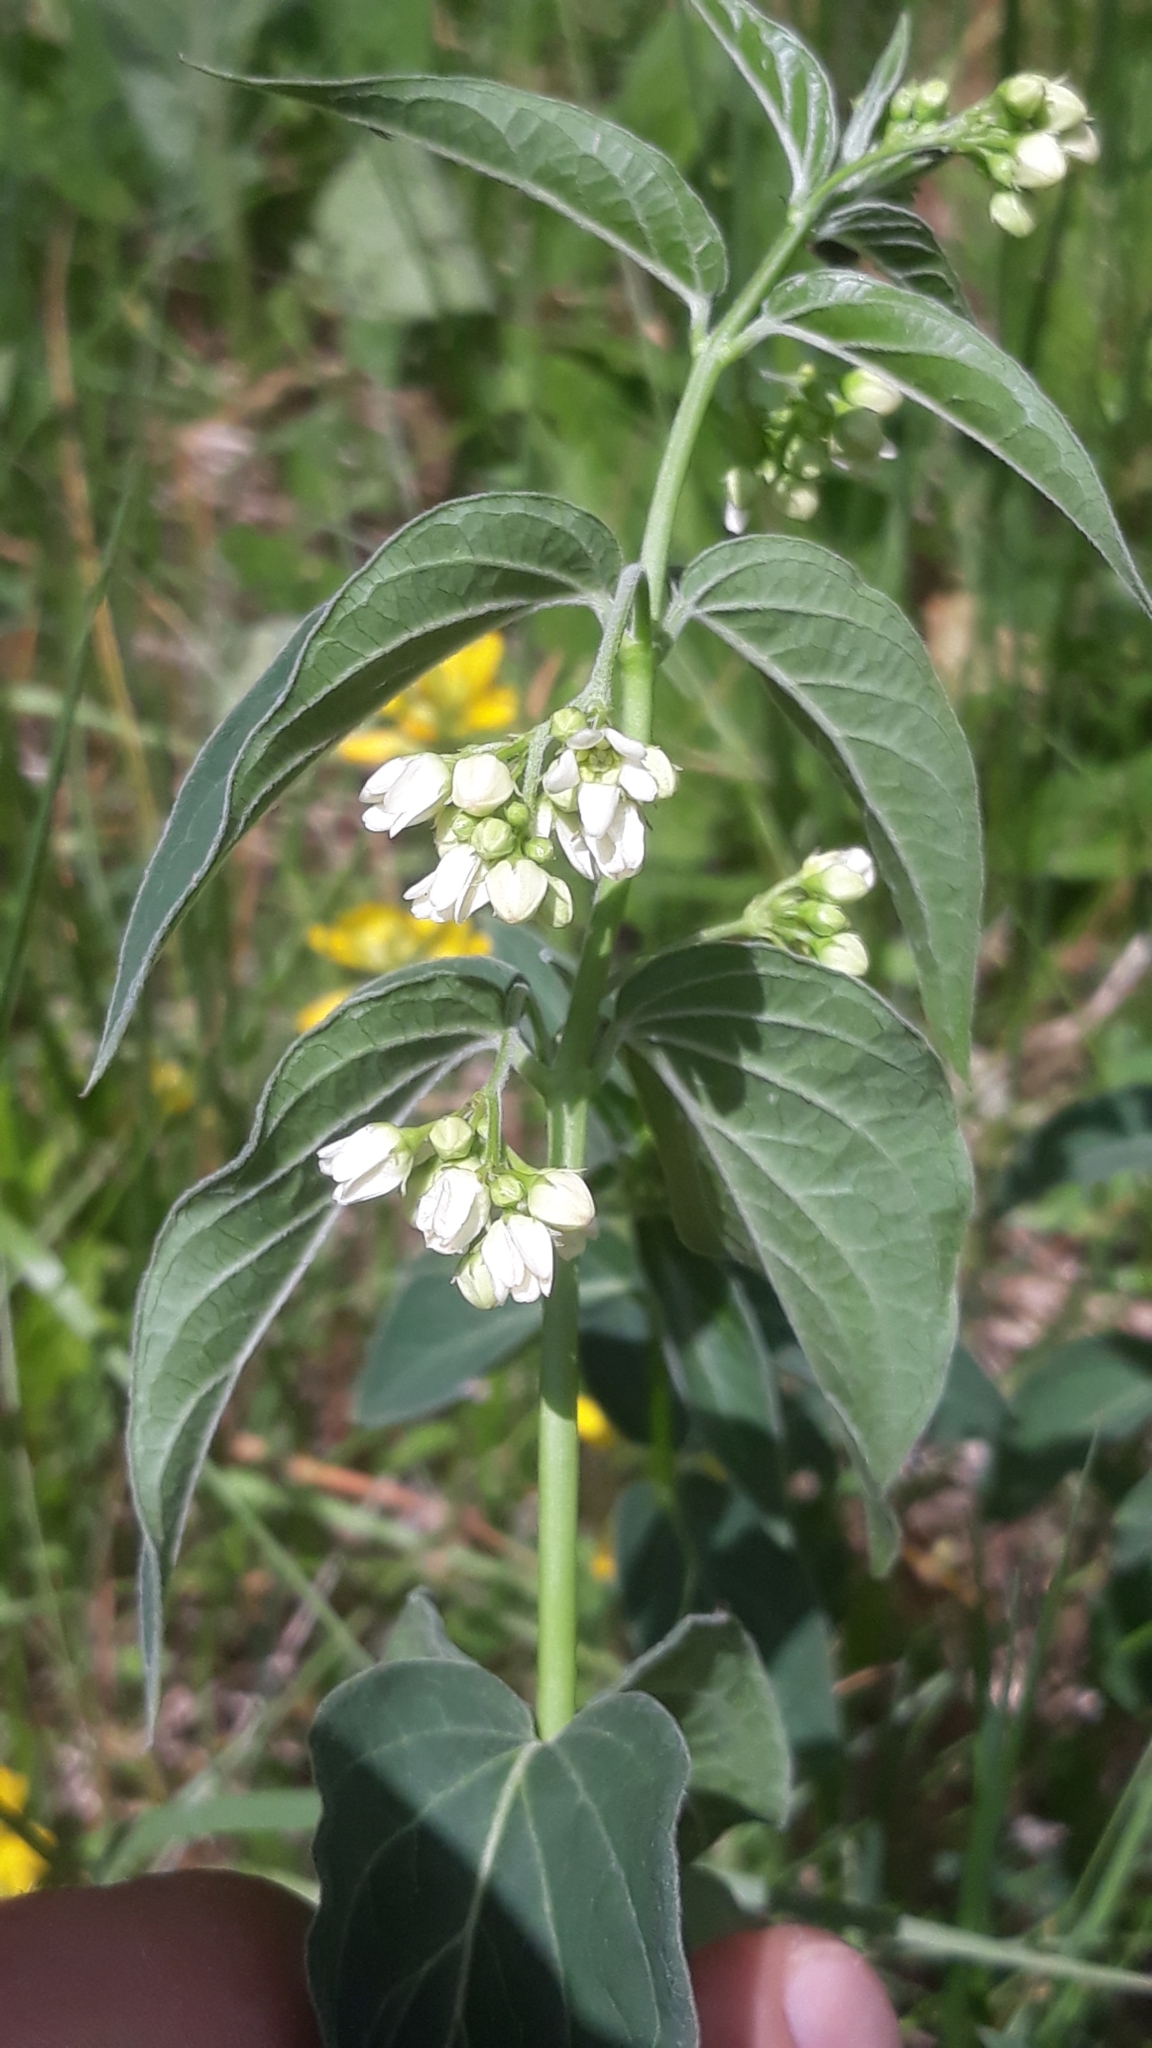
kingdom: Plantae
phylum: Tracheophyta
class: Magnoliopsida
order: Gentianales
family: Apocynaceae
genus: Vincetoxicum
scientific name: Vincetoxicum hirundinaria
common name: White swallowwort
